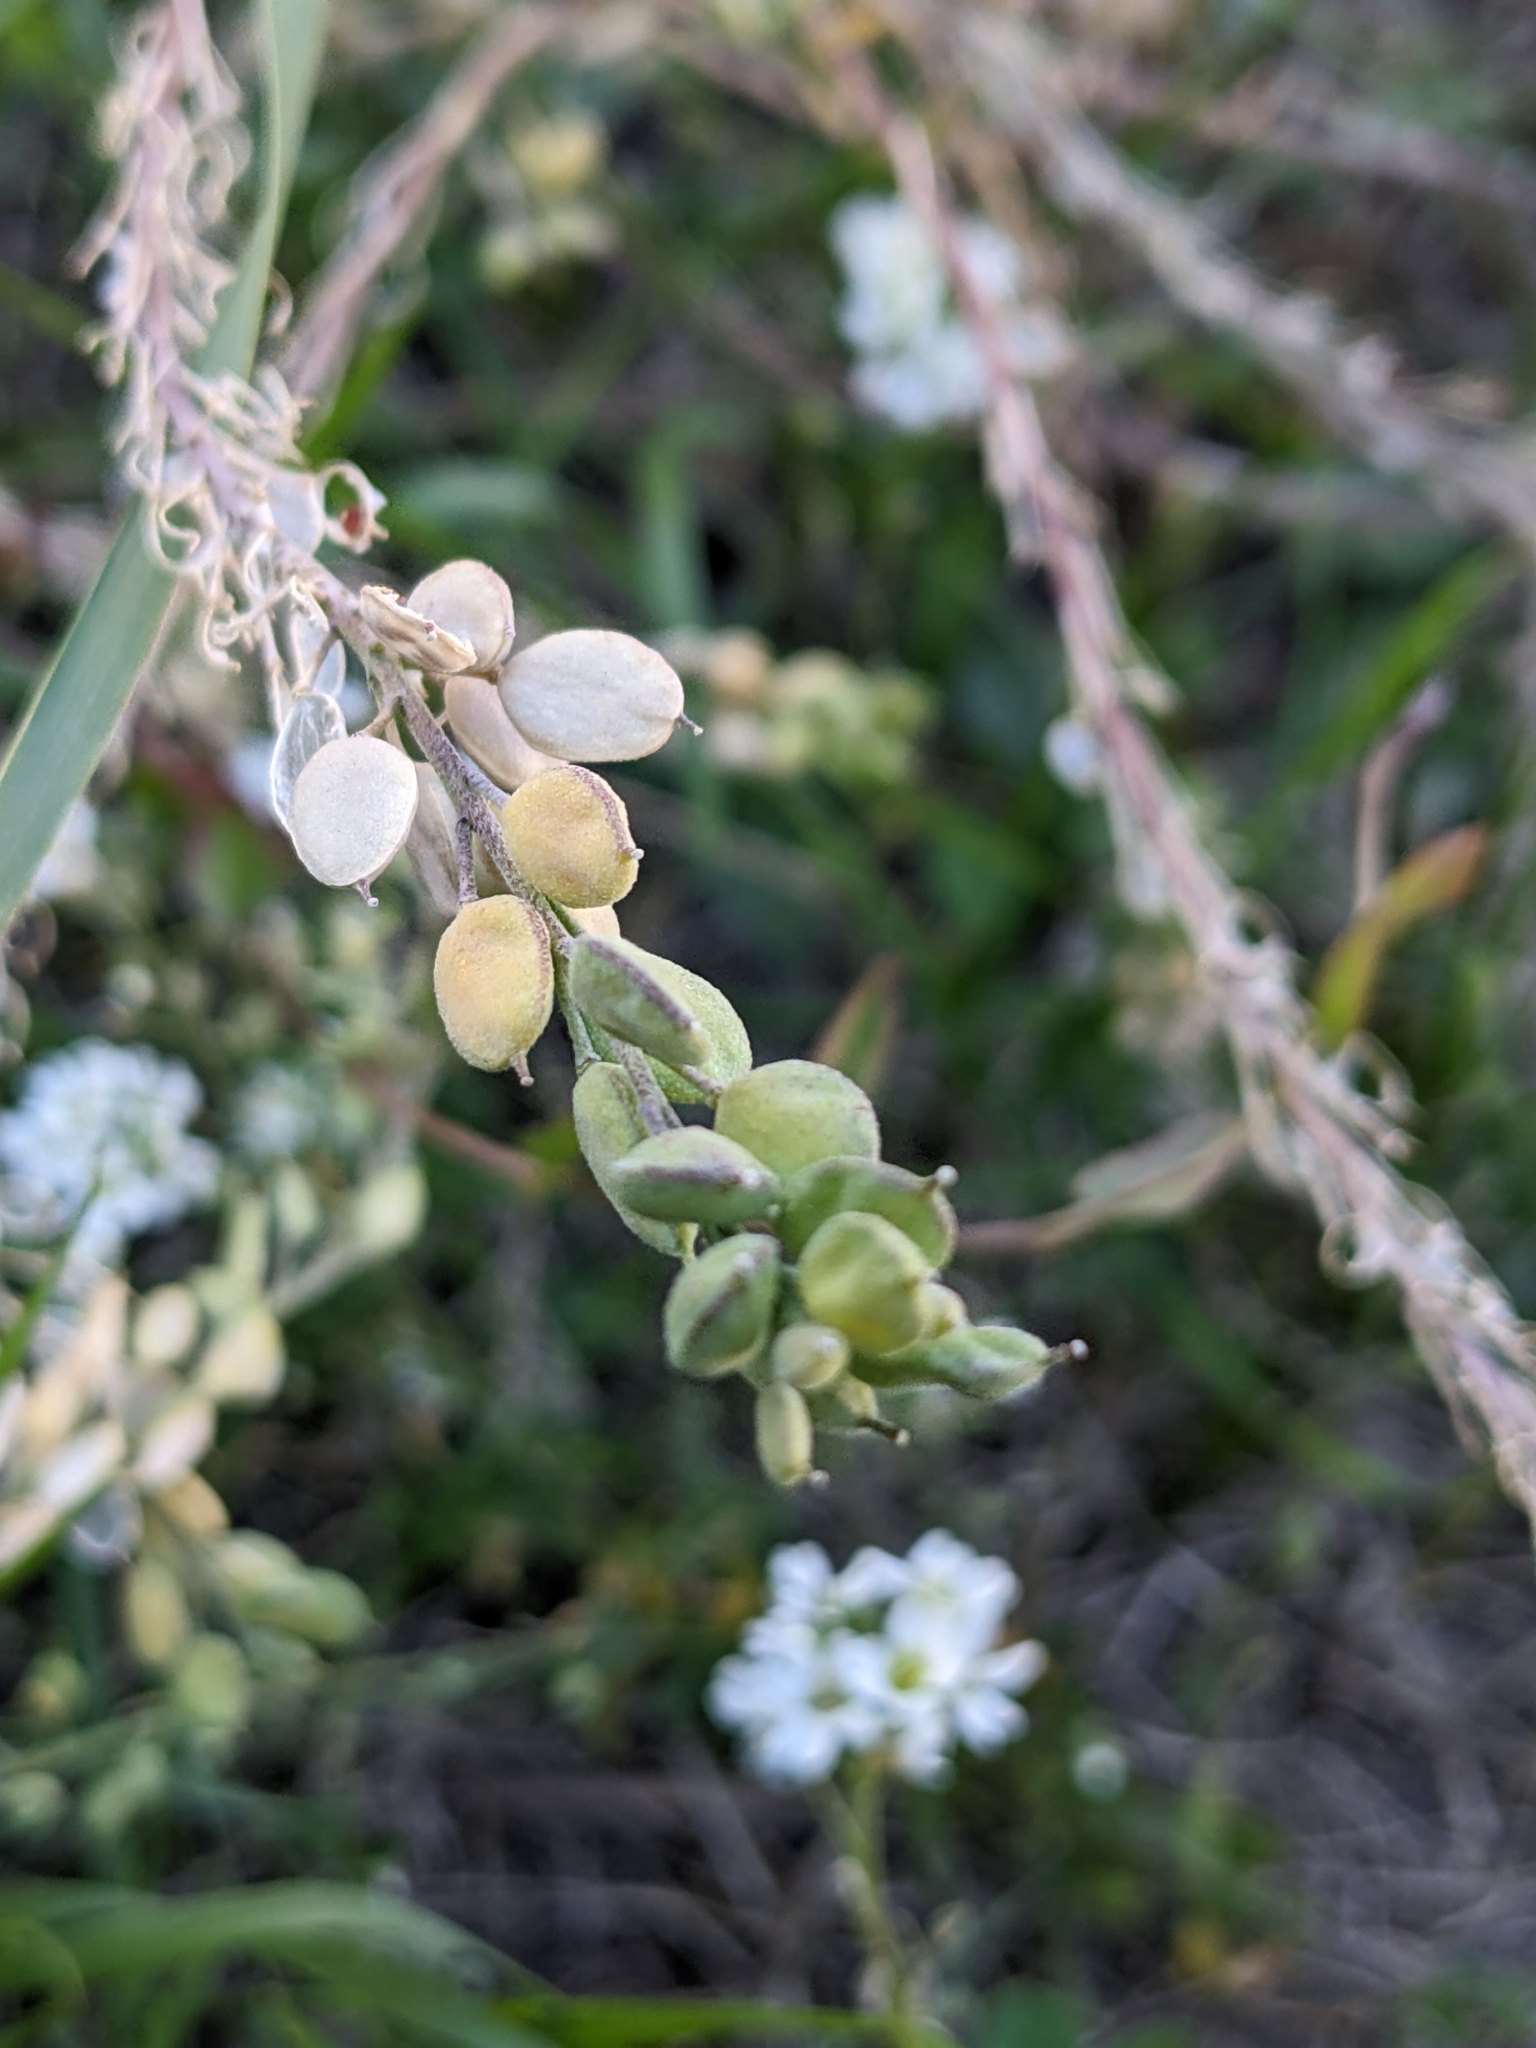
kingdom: Plantae
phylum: Tracheophyta
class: Magnoliopsida
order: Brassicales
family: Brassicaceae
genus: Berteroa
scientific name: Berteroa incana
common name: Hoary alison
